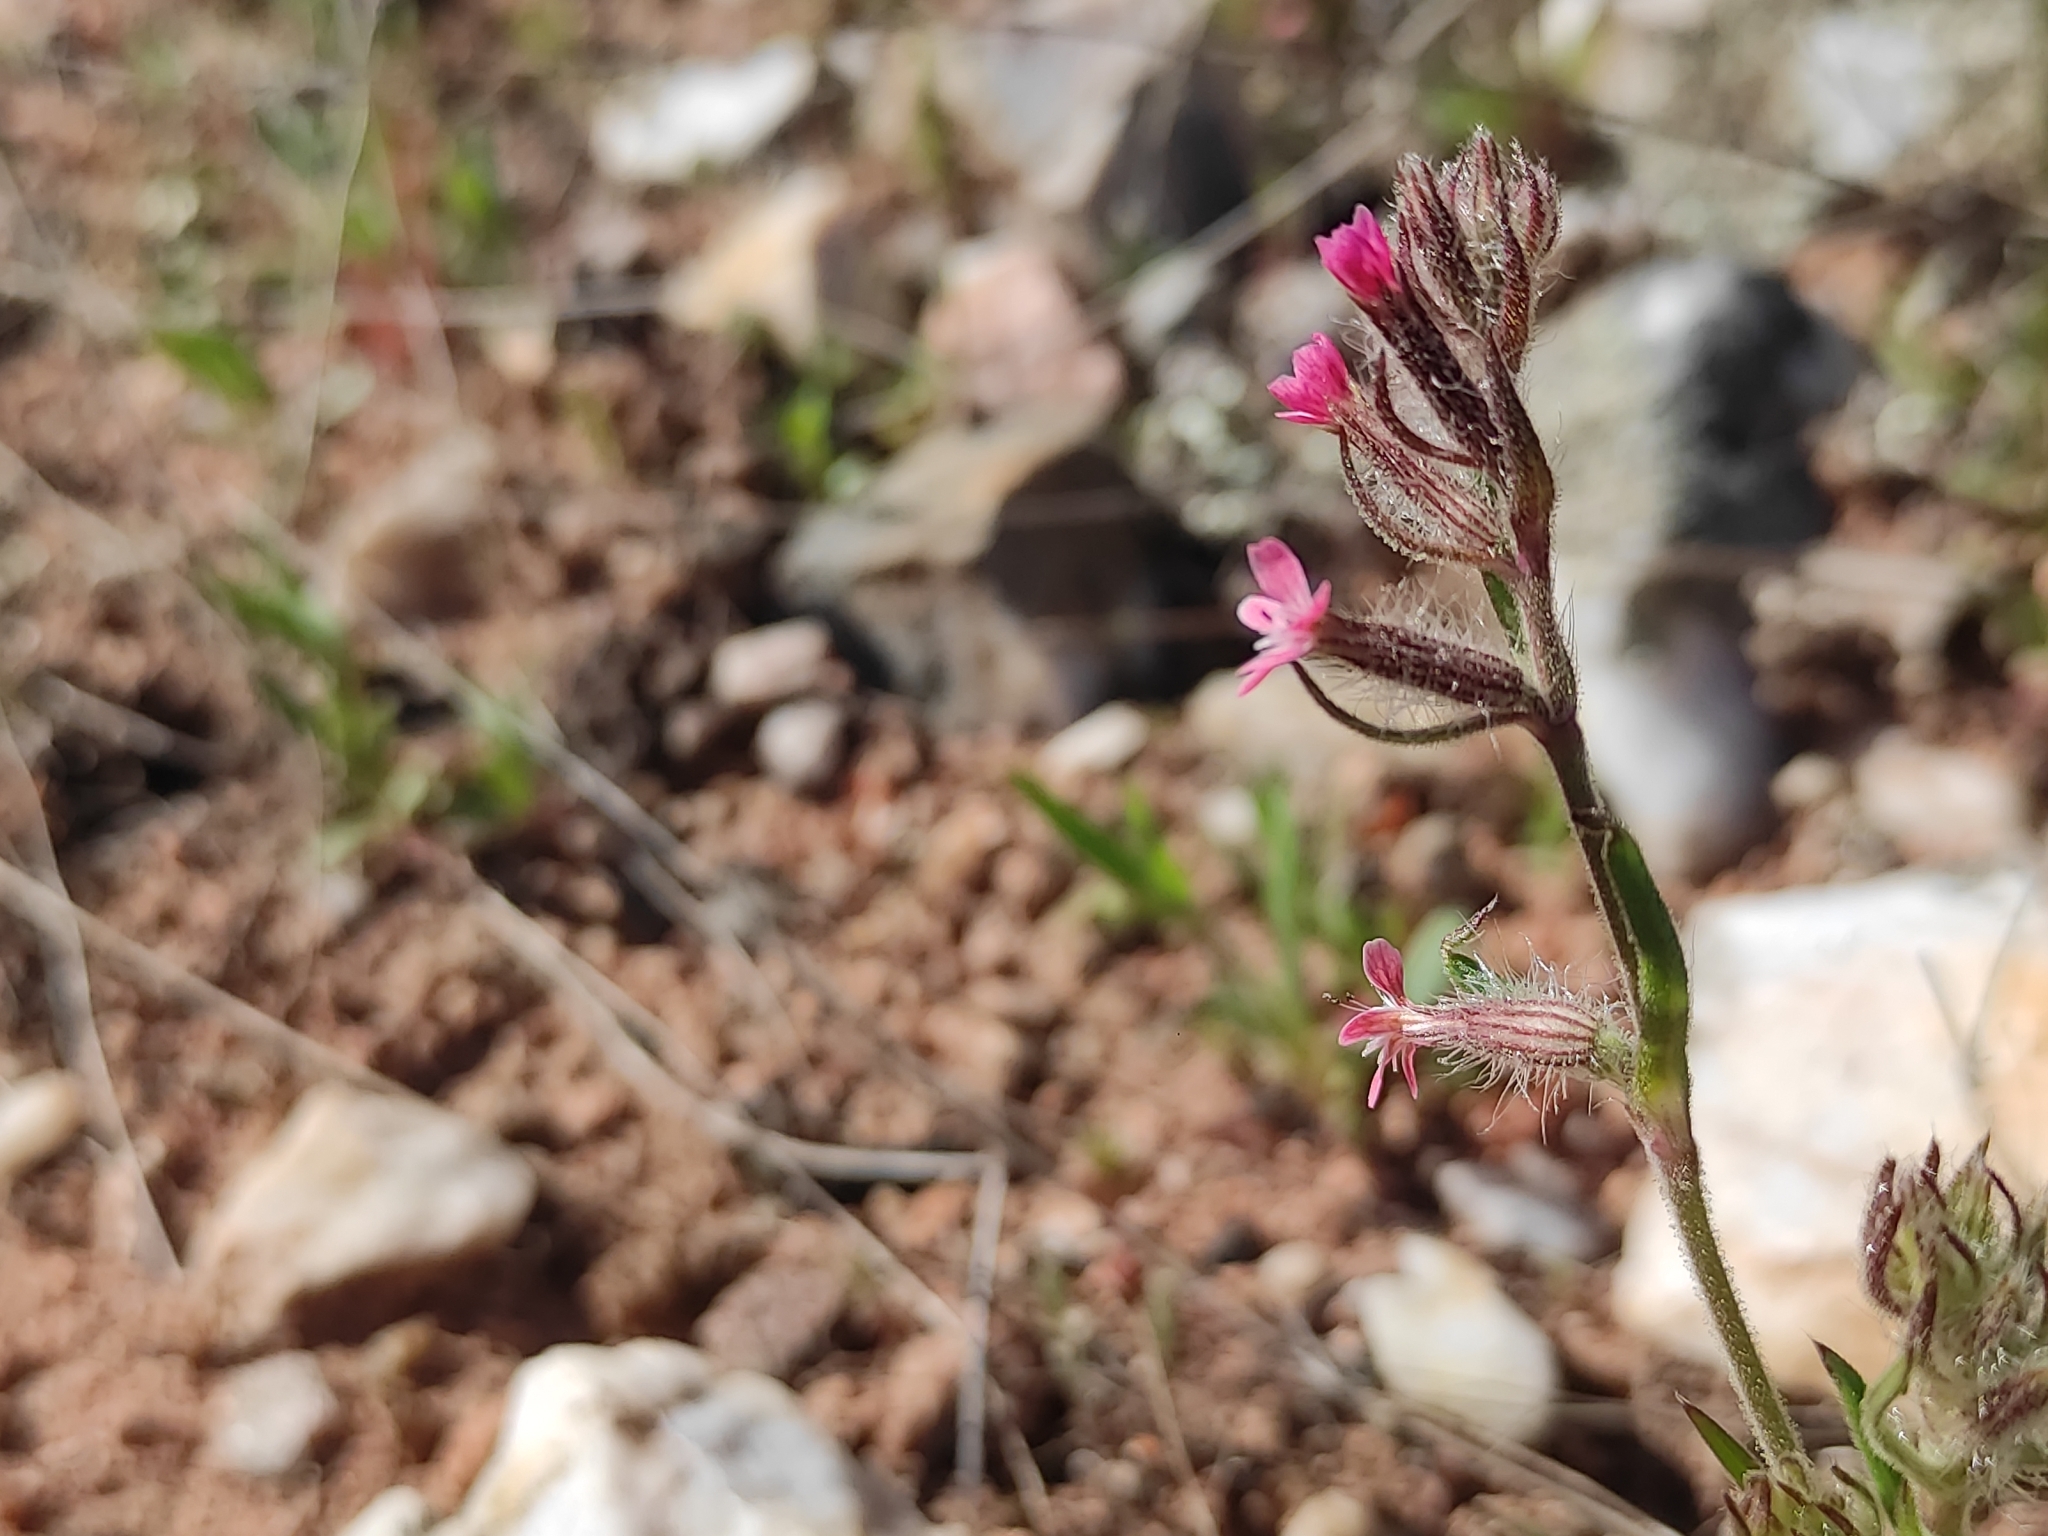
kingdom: Plantae
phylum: Tracheophyta
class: Magnoliopsida
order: Caryophyllales
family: Caryophyllaceae
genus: Silene
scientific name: Silene gallica
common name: Small-flowered catchfly
